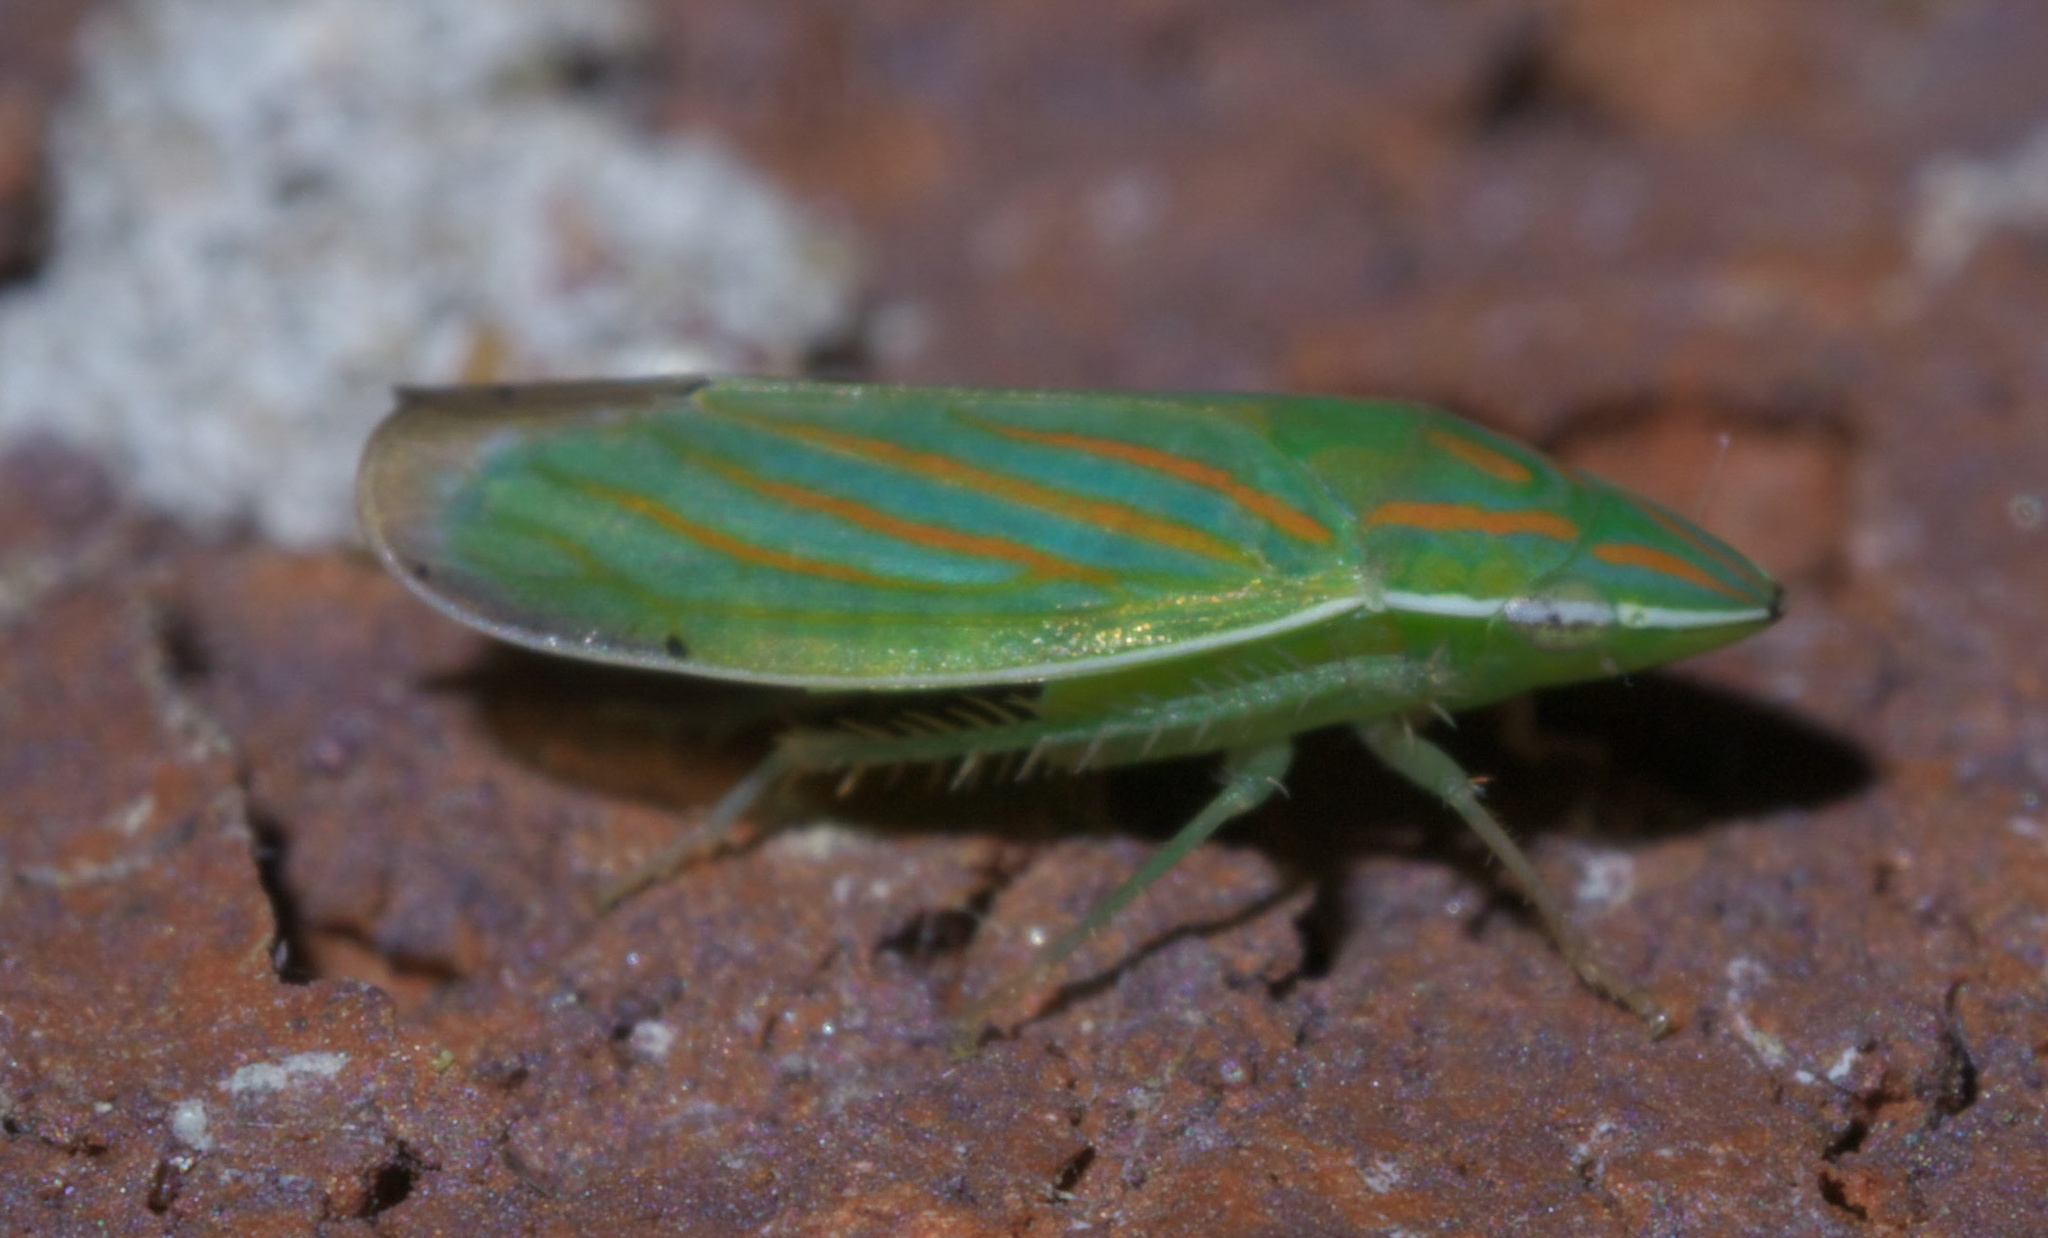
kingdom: Animalia
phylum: Arthropoda
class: Insecta
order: Hemiptera
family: Cicadellidae
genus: Spangbergiella
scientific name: Spangbergiella viridis
